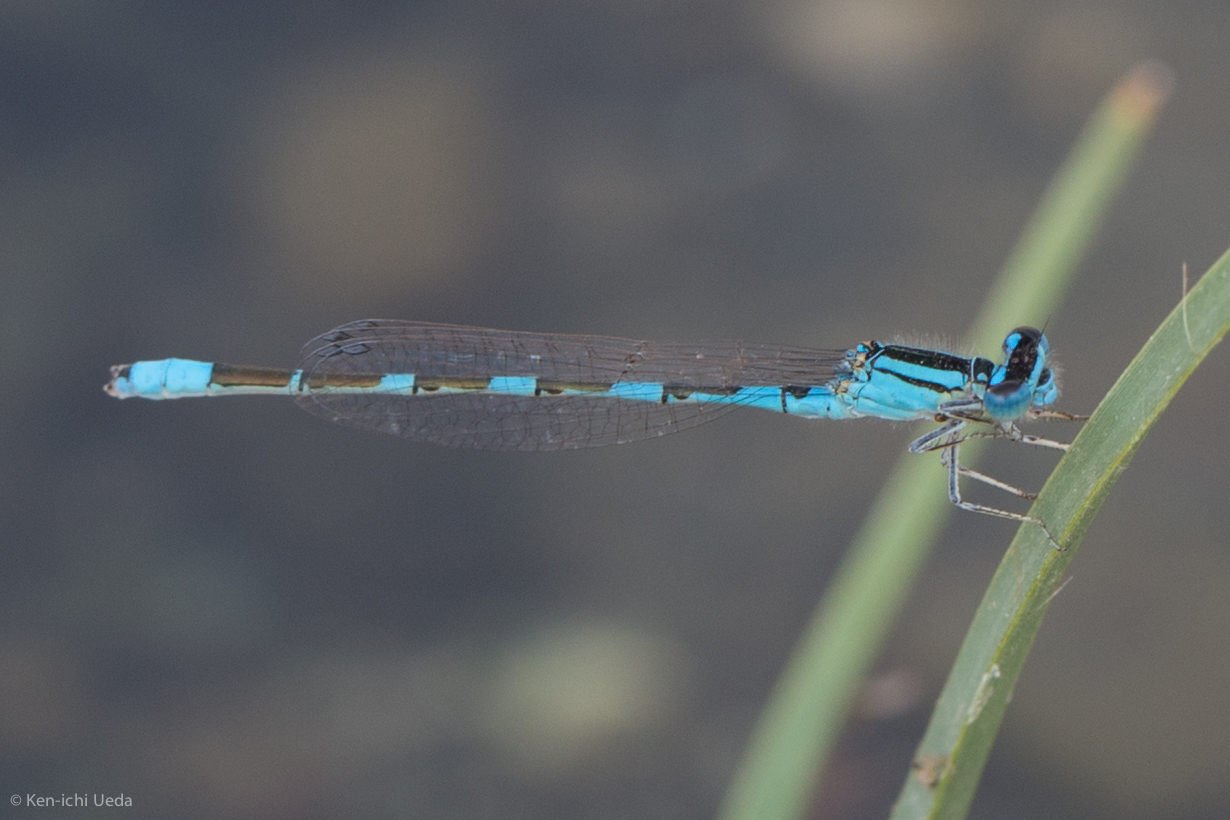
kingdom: Animalia
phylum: Arthropoda
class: Insecta
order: Odonata
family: Coenagrionidae
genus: Enallagma
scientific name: Enallagma carunculatum
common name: Tule bluet
